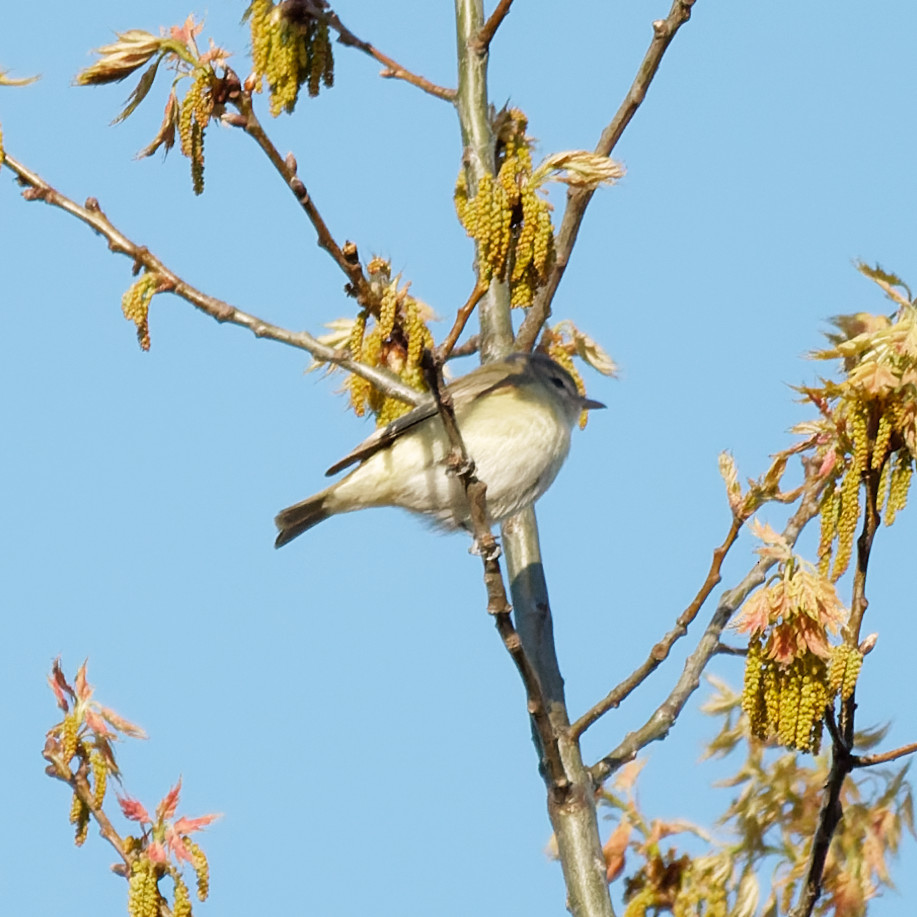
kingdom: Animalia
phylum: Chordata
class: Aves
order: Passeriformes
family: Vireonidae
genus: Vireo
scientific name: Vireo gilvus
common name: Warbling vireo
